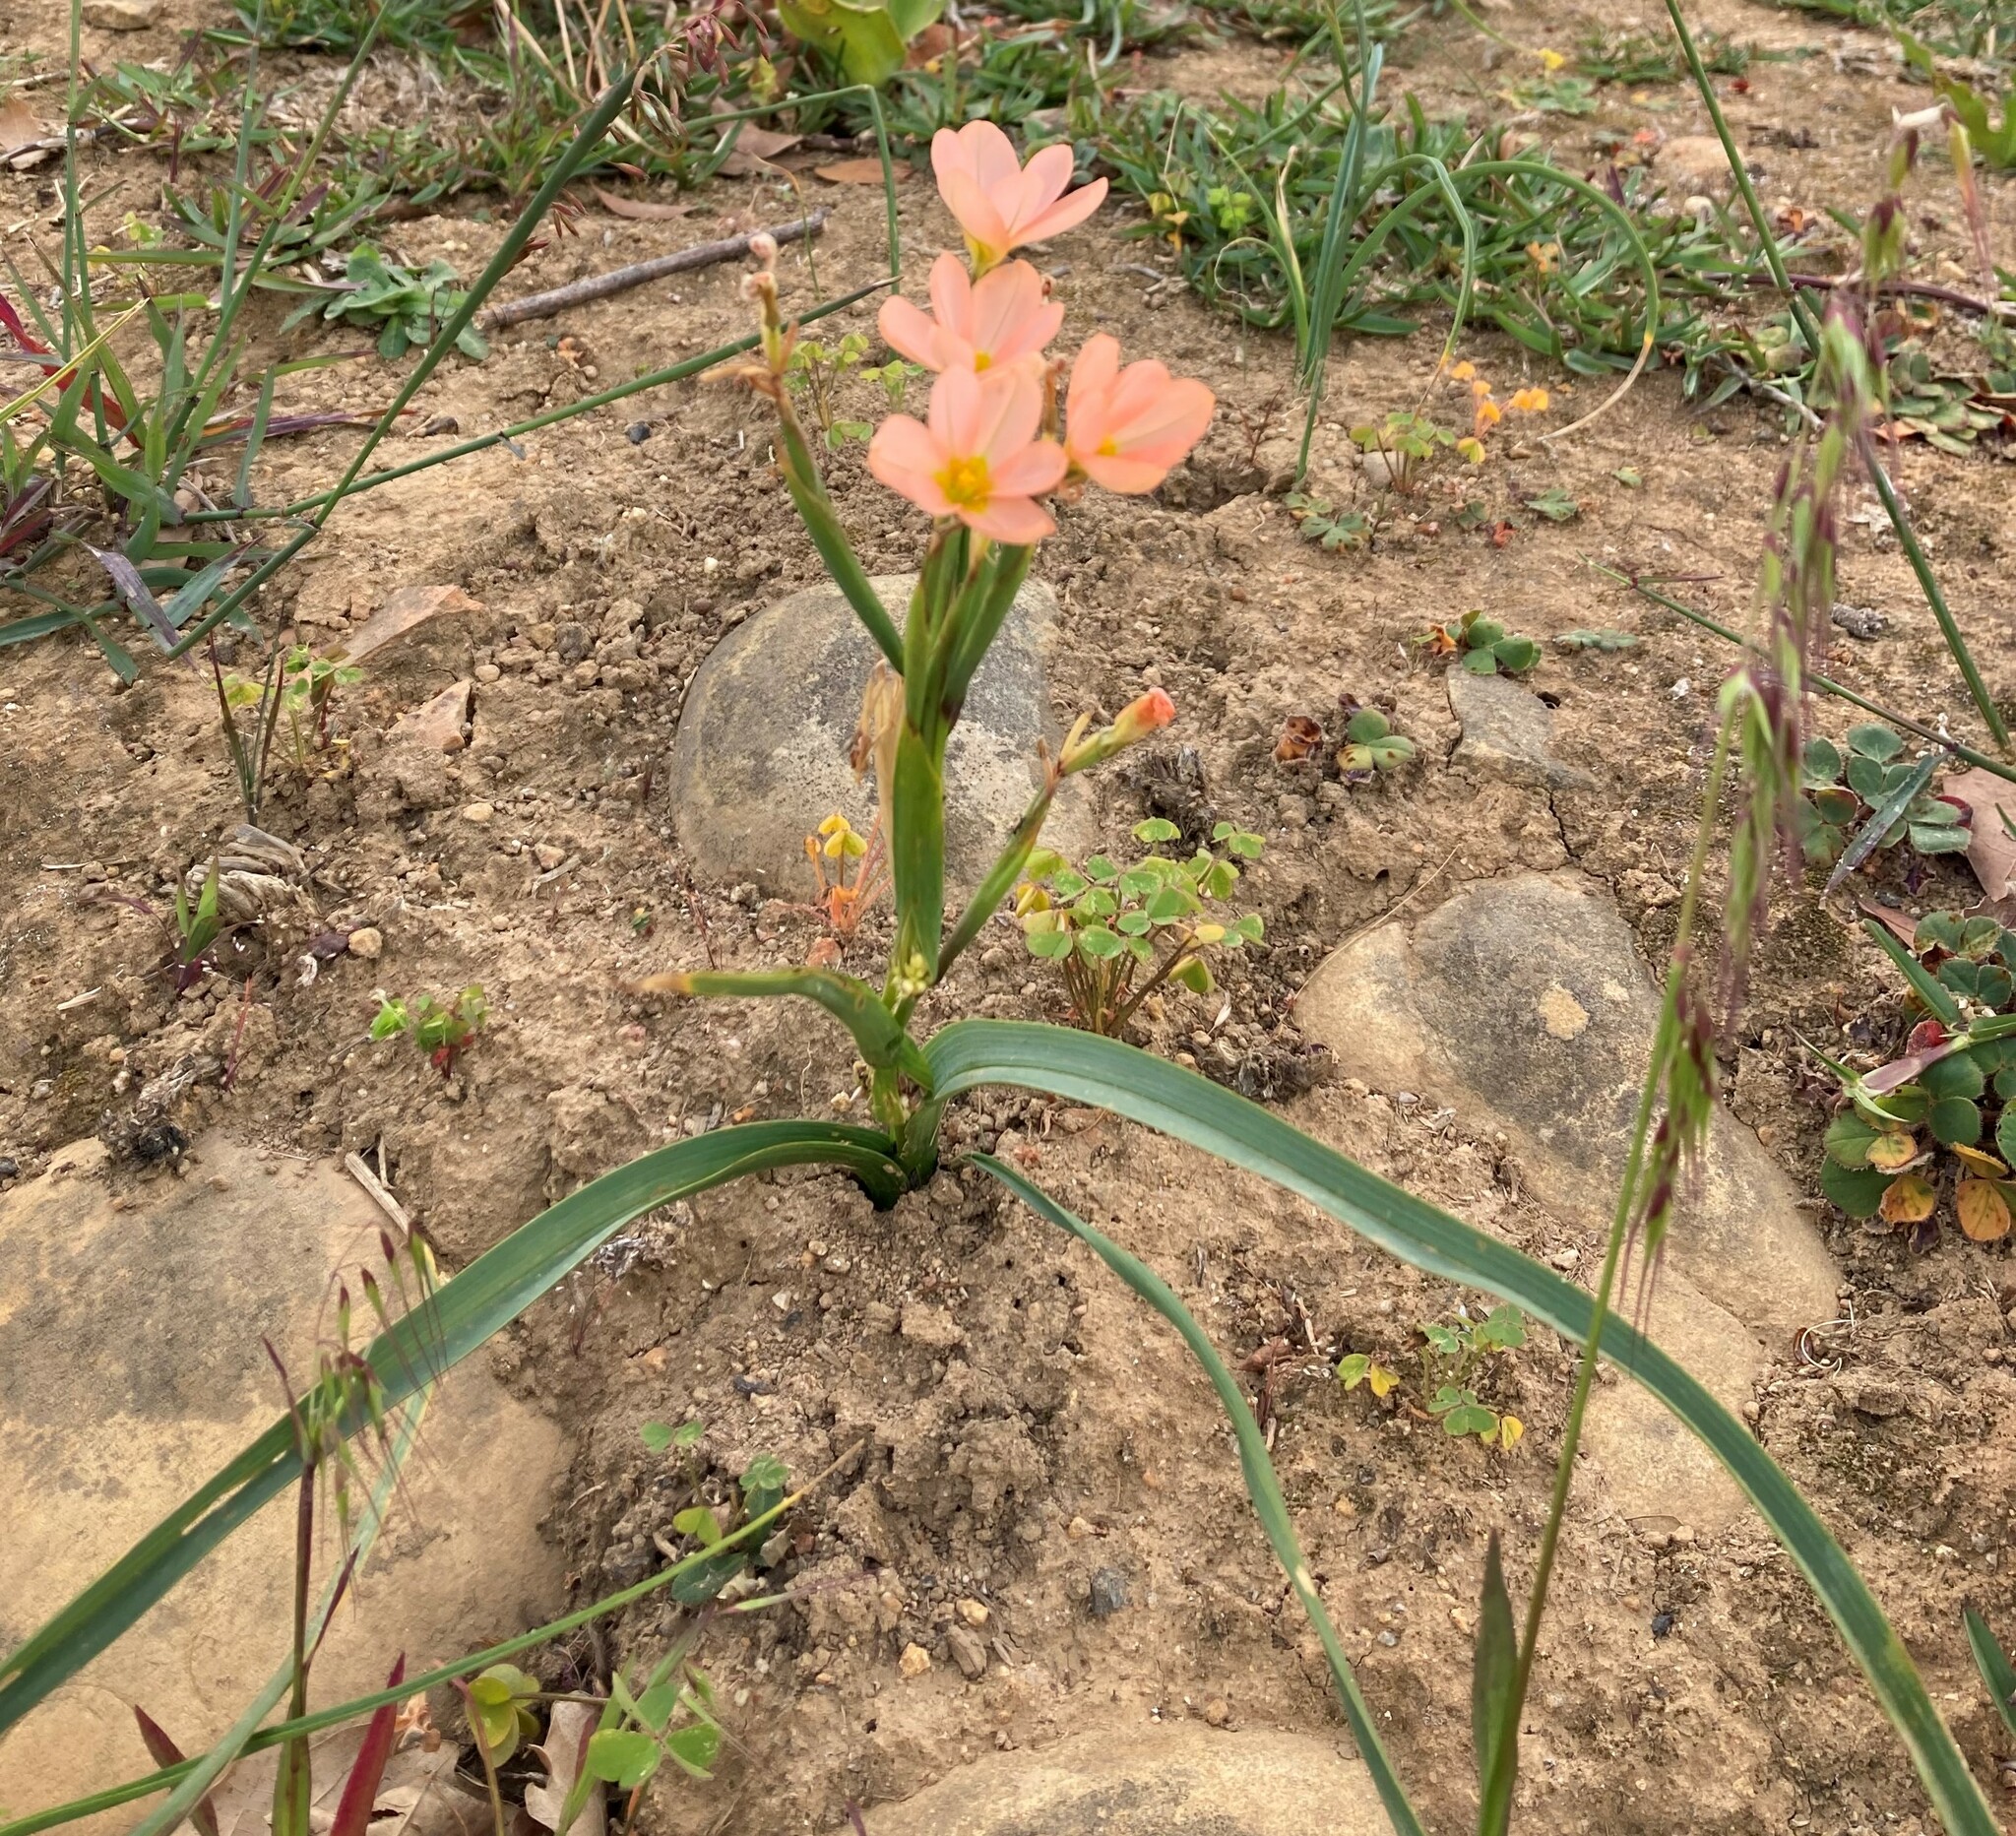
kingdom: Plantae
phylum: Tracheophyta
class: Liliopsida
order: Asparagales
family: Iridaceae
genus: Moraea
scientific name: Moraea miniata
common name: Two-leaf cape-tulip
